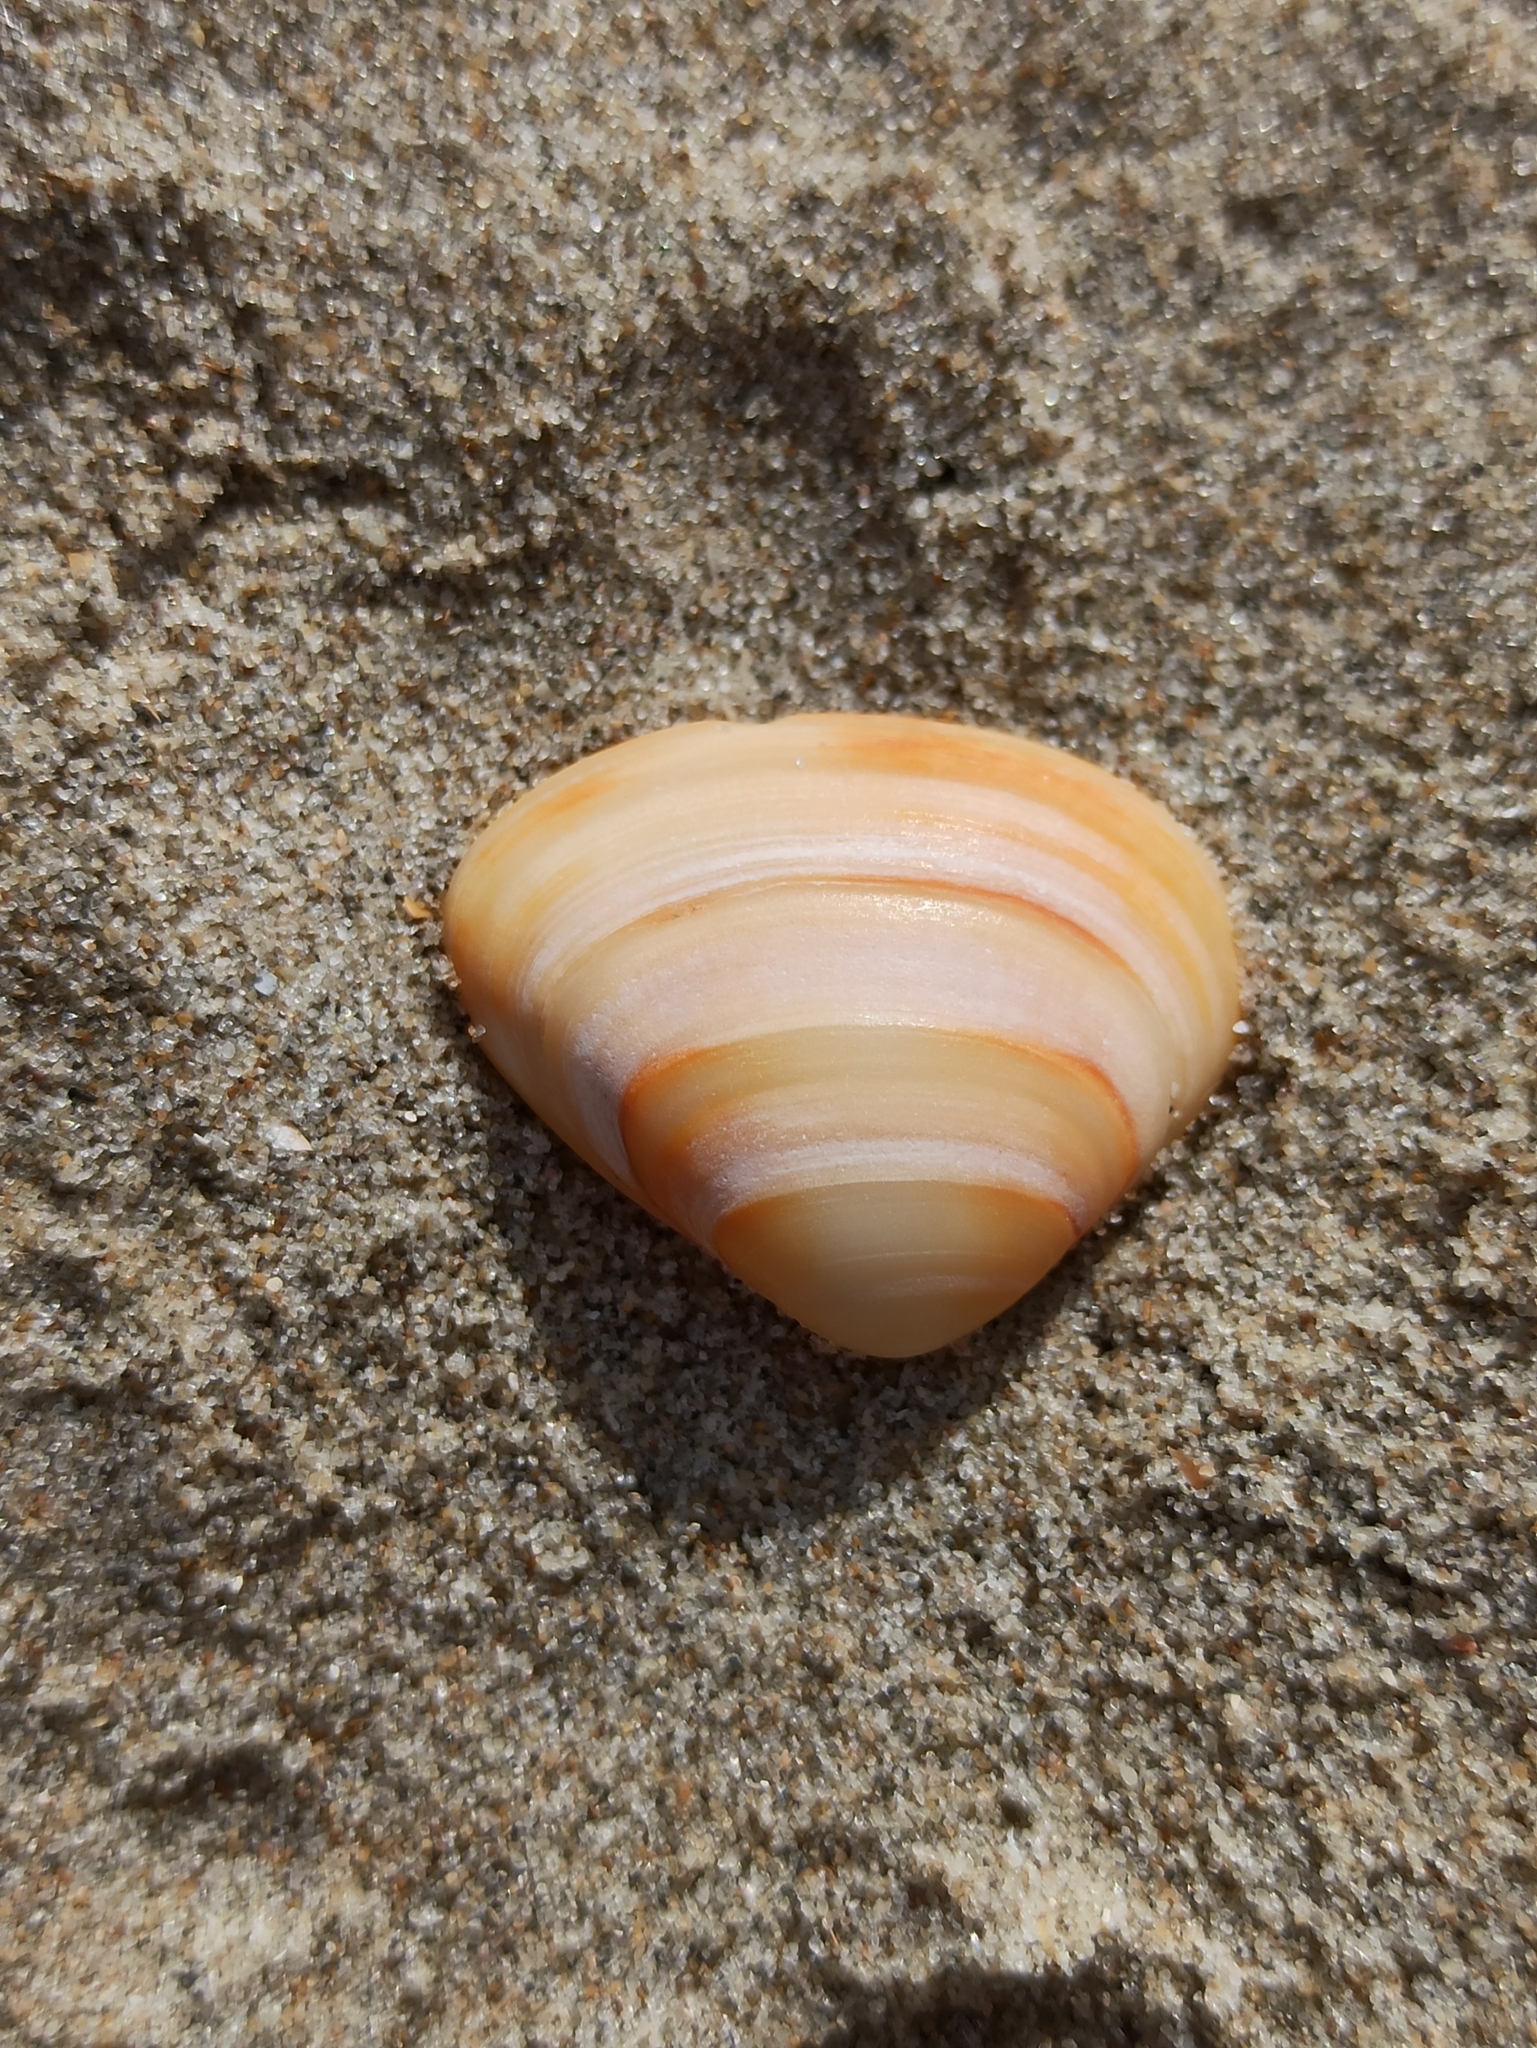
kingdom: Animalia
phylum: Mollusca
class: Bivalvia
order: Venerida
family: Mactridae
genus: Spisula
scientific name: Spisula subtruncata
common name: Cut trough shell
